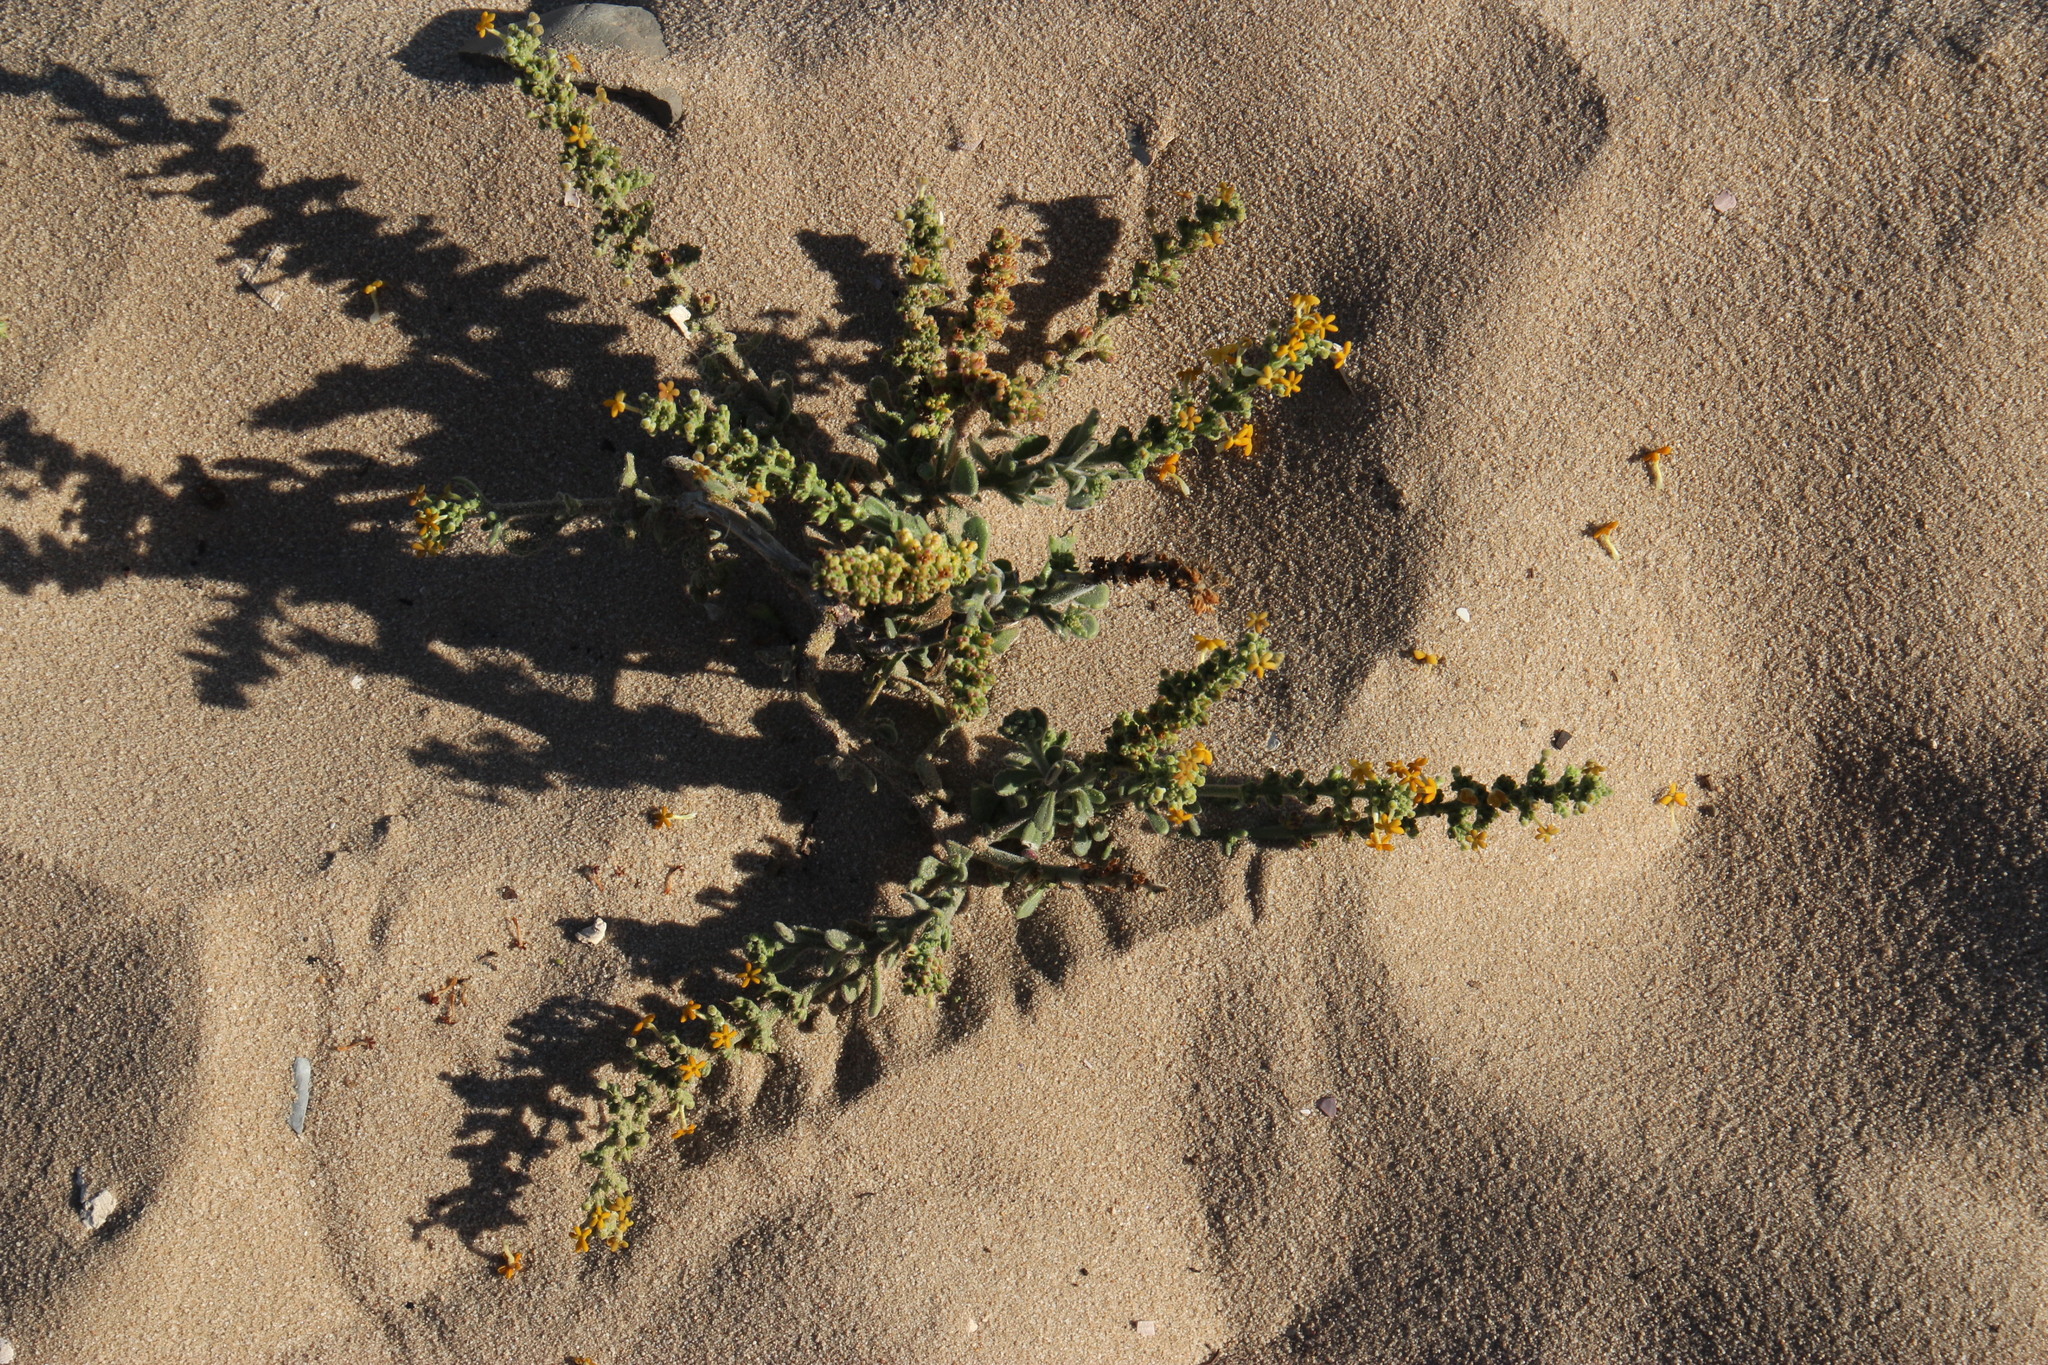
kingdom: Plantae
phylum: Tracheophyta
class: Magnoliopsida
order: Lamiales
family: Scrophulariaceae
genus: Manulea
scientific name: Manulea tomentosa
